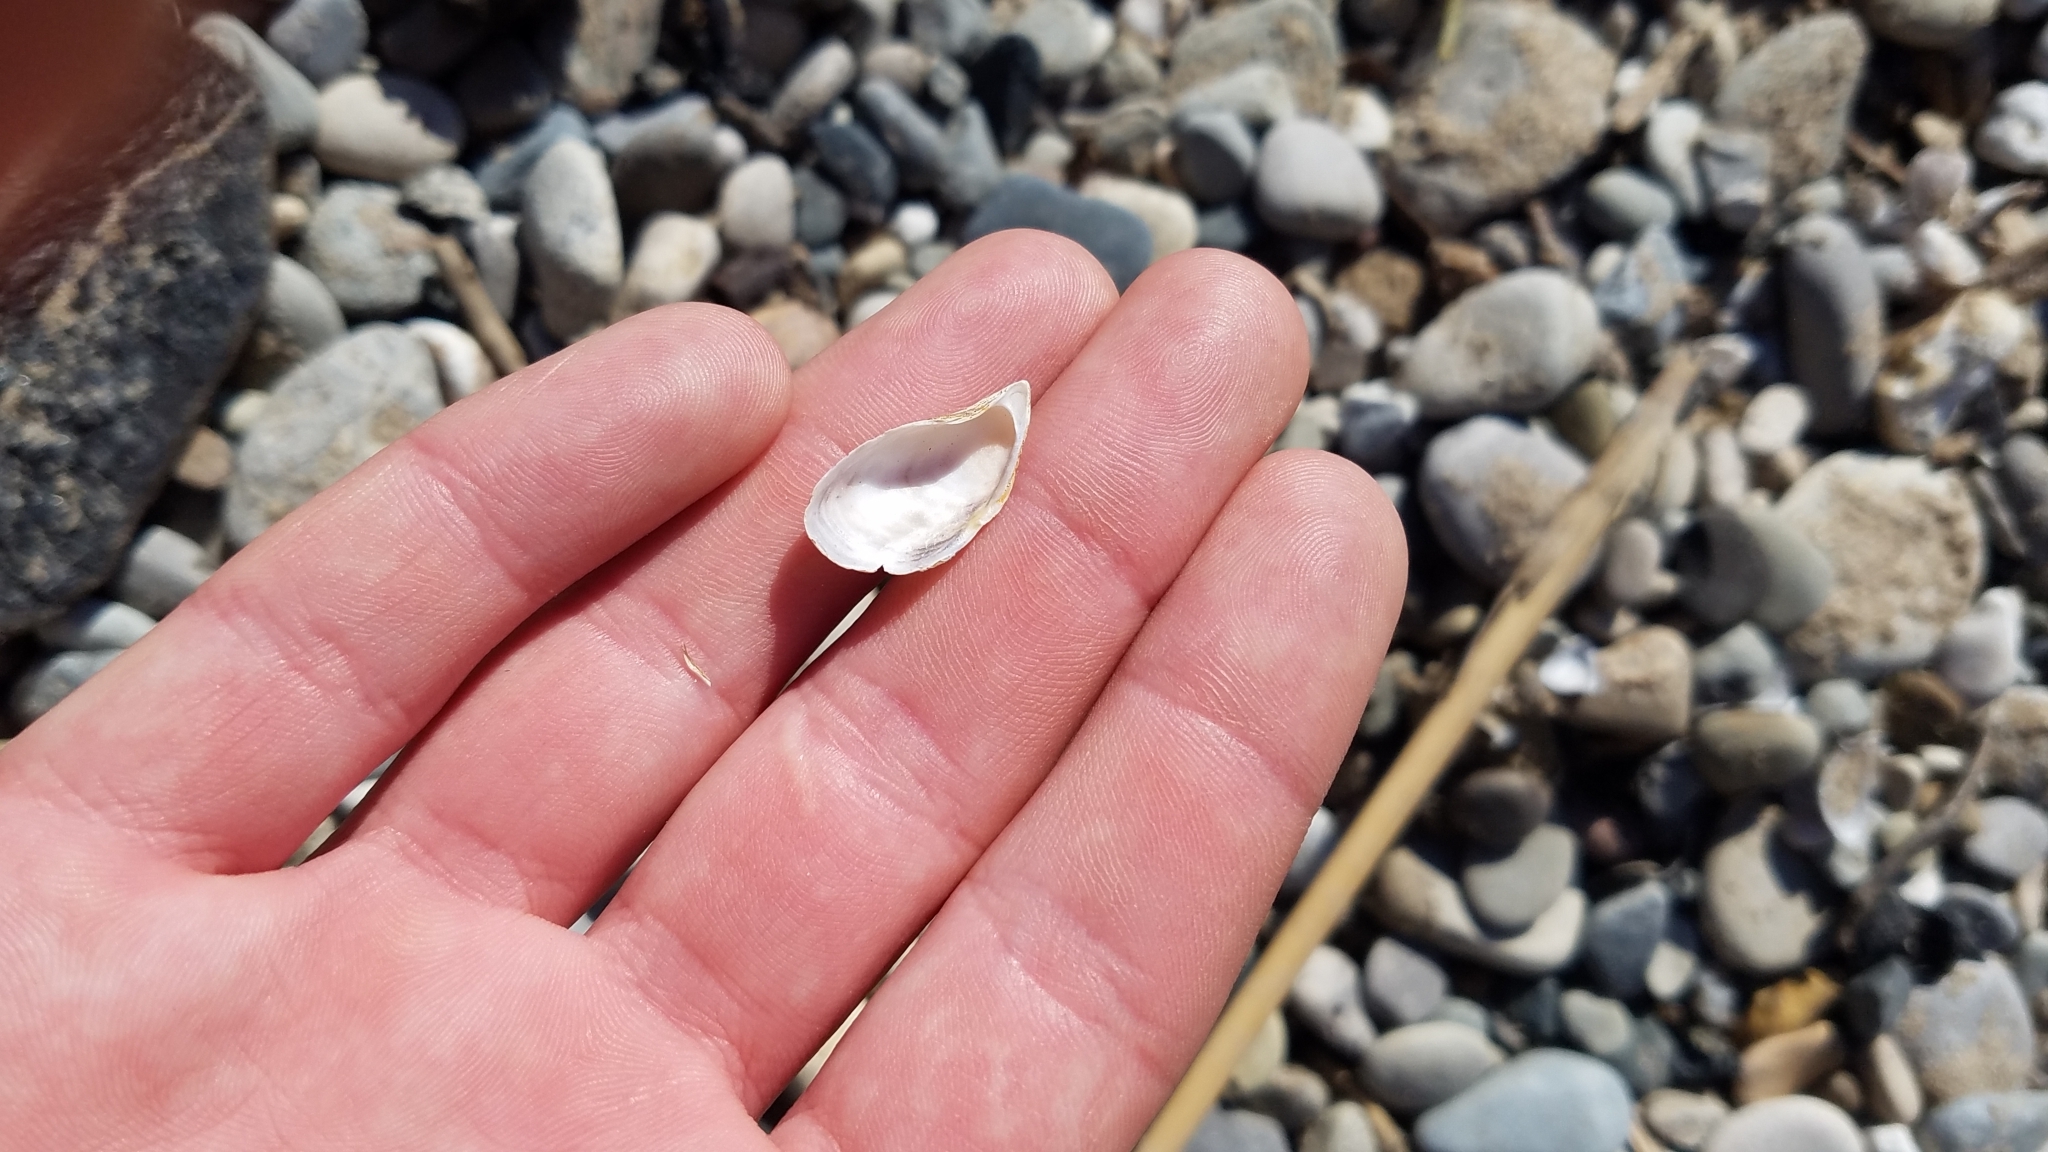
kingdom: Animalia
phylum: Mollusca
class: Bivalvia
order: Myida
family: Dreissenidae
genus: Dreissena
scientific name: Dreissena bugensis
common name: Quagga mussel
